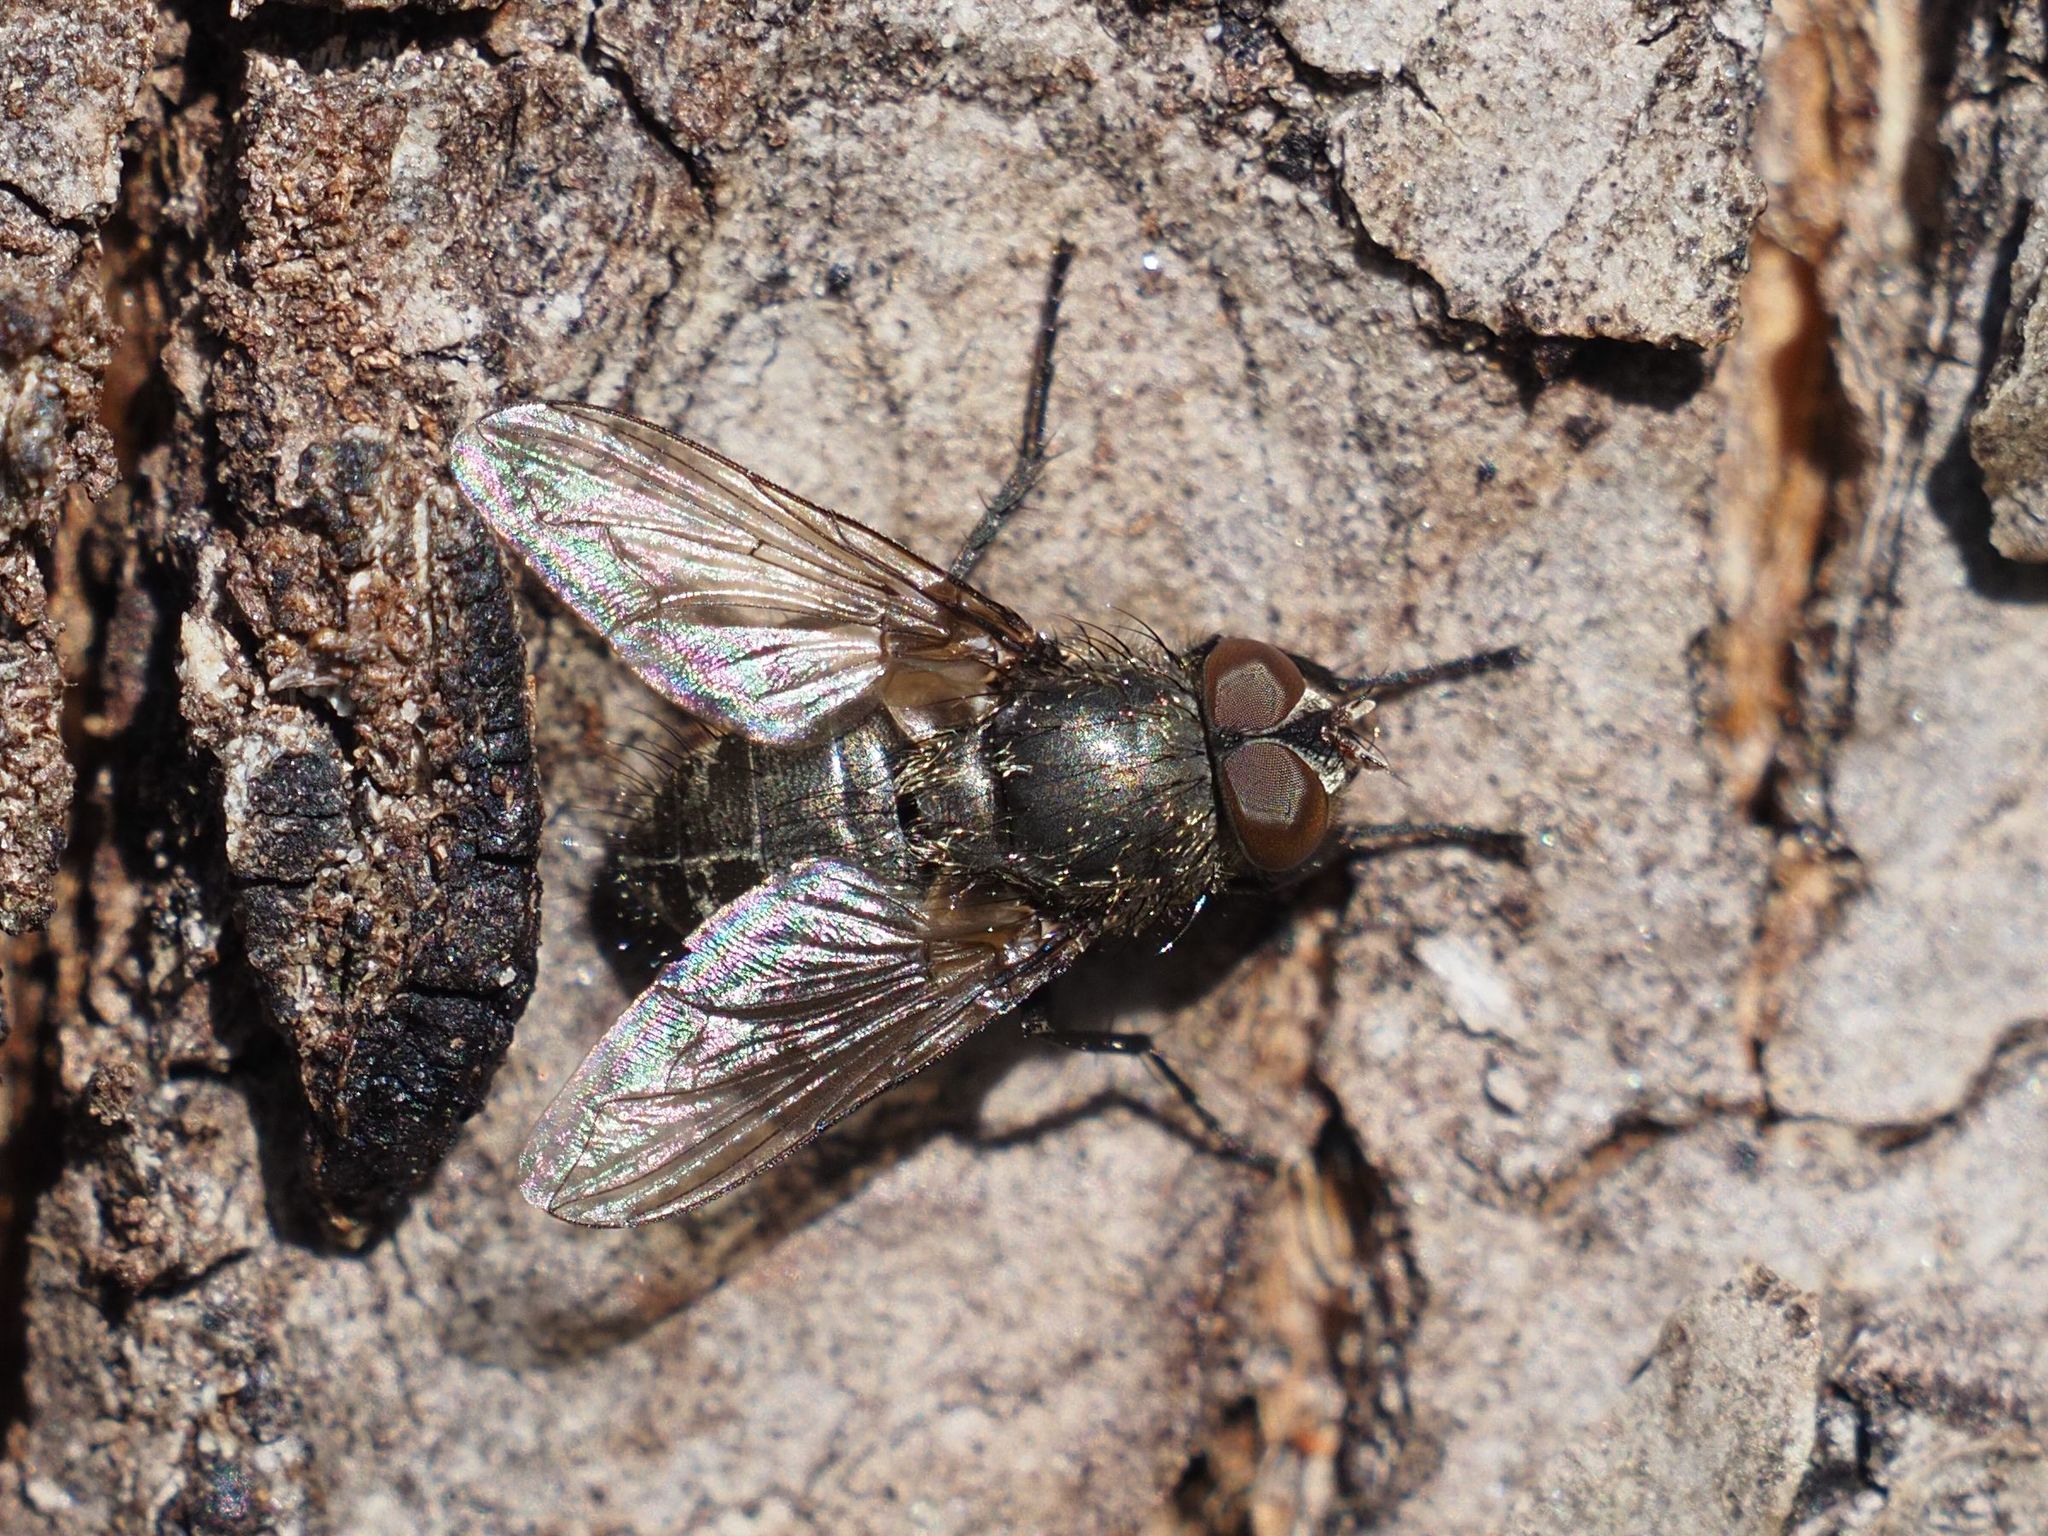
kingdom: Animalia
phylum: Arthropoda
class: Insecta
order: Diptera
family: Polleniidae
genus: Pollenia
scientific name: Pollenia intermedia
